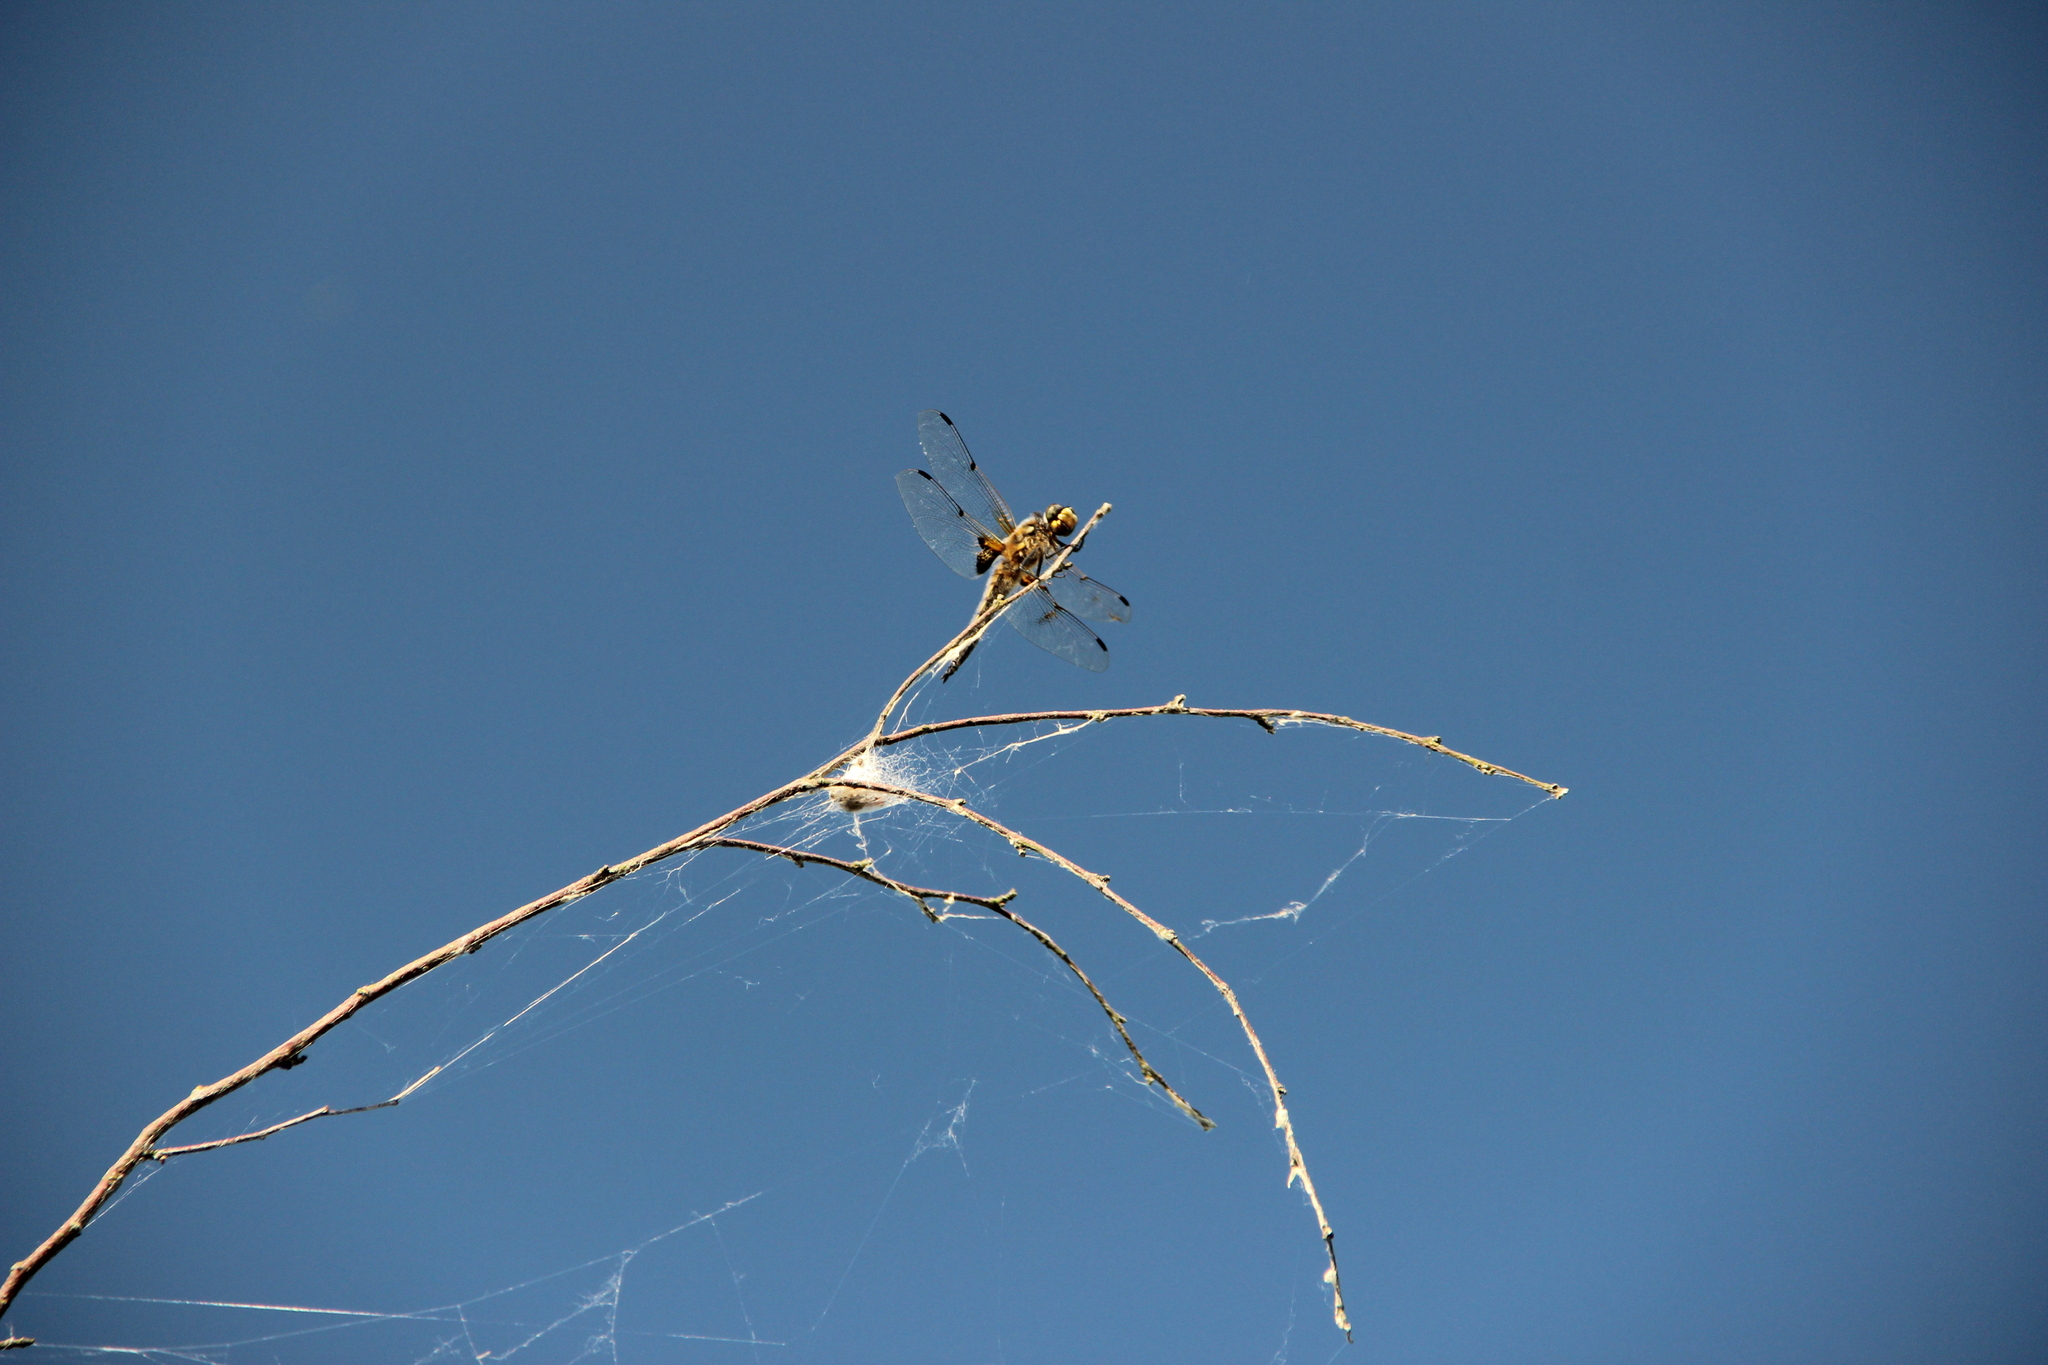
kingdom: Animalia
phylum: Arthropoda
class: Insecta
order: Odonata
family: Libellulidae
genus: Libellula
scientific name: Libellula quadrimaculata
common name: Four-spotted chaser
